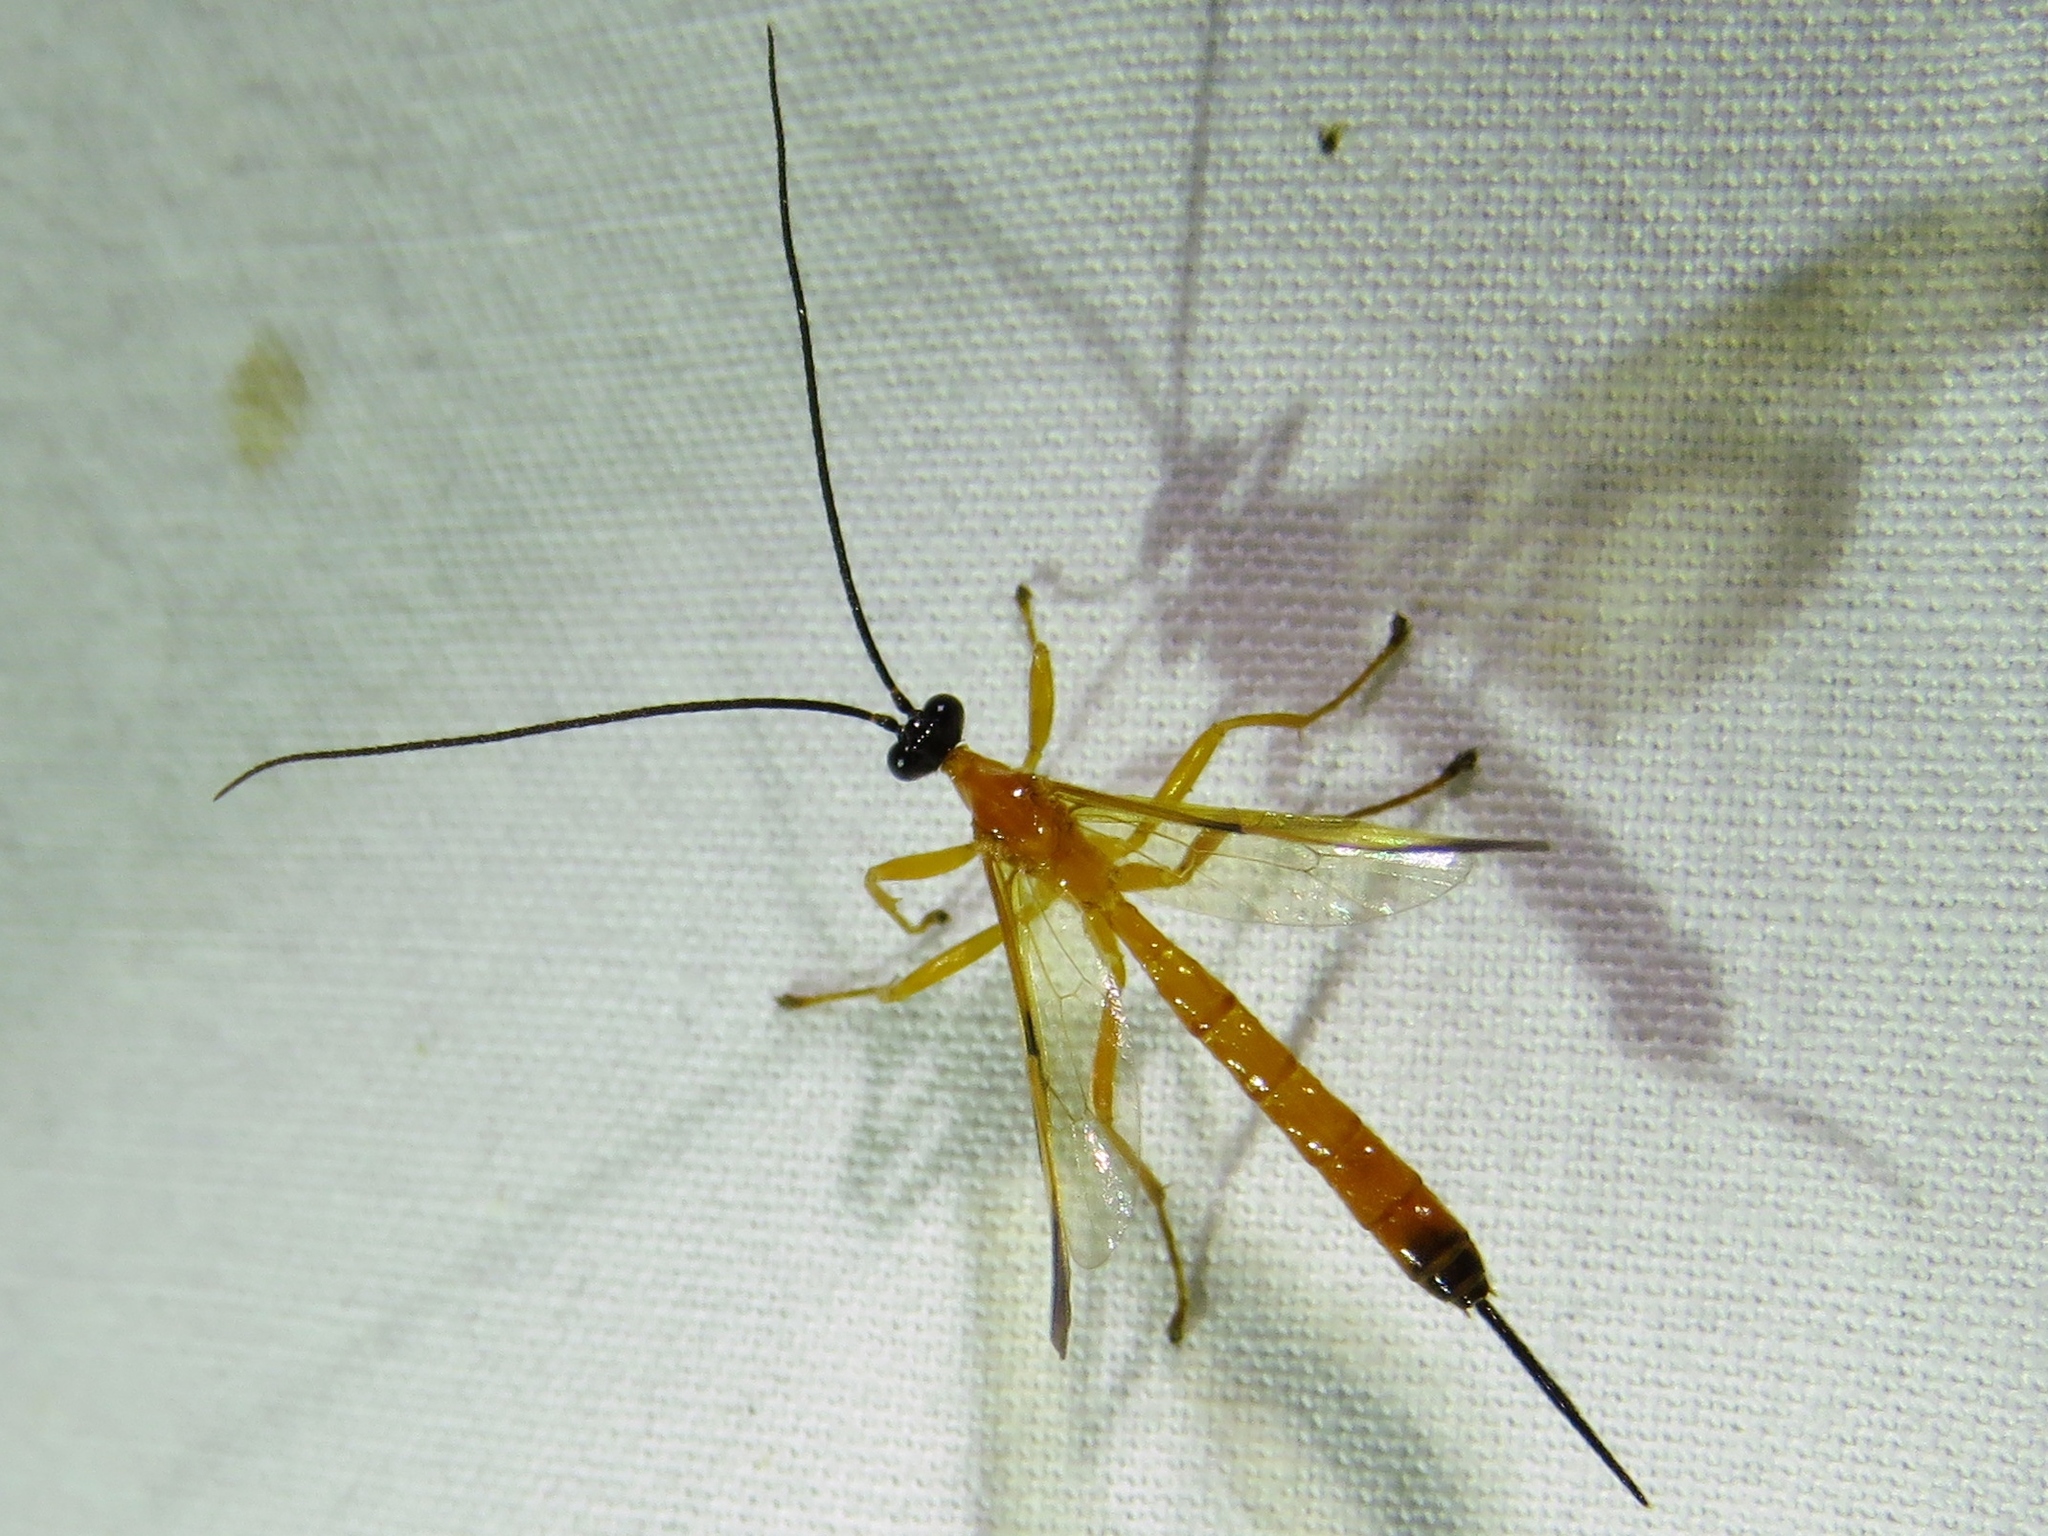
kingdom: Animalia
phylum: Arthropoda
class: Insecta
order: Hymenoptera
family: Ichneumonidae
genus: Acrotaphus
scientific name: Acrotaphus wiltii
